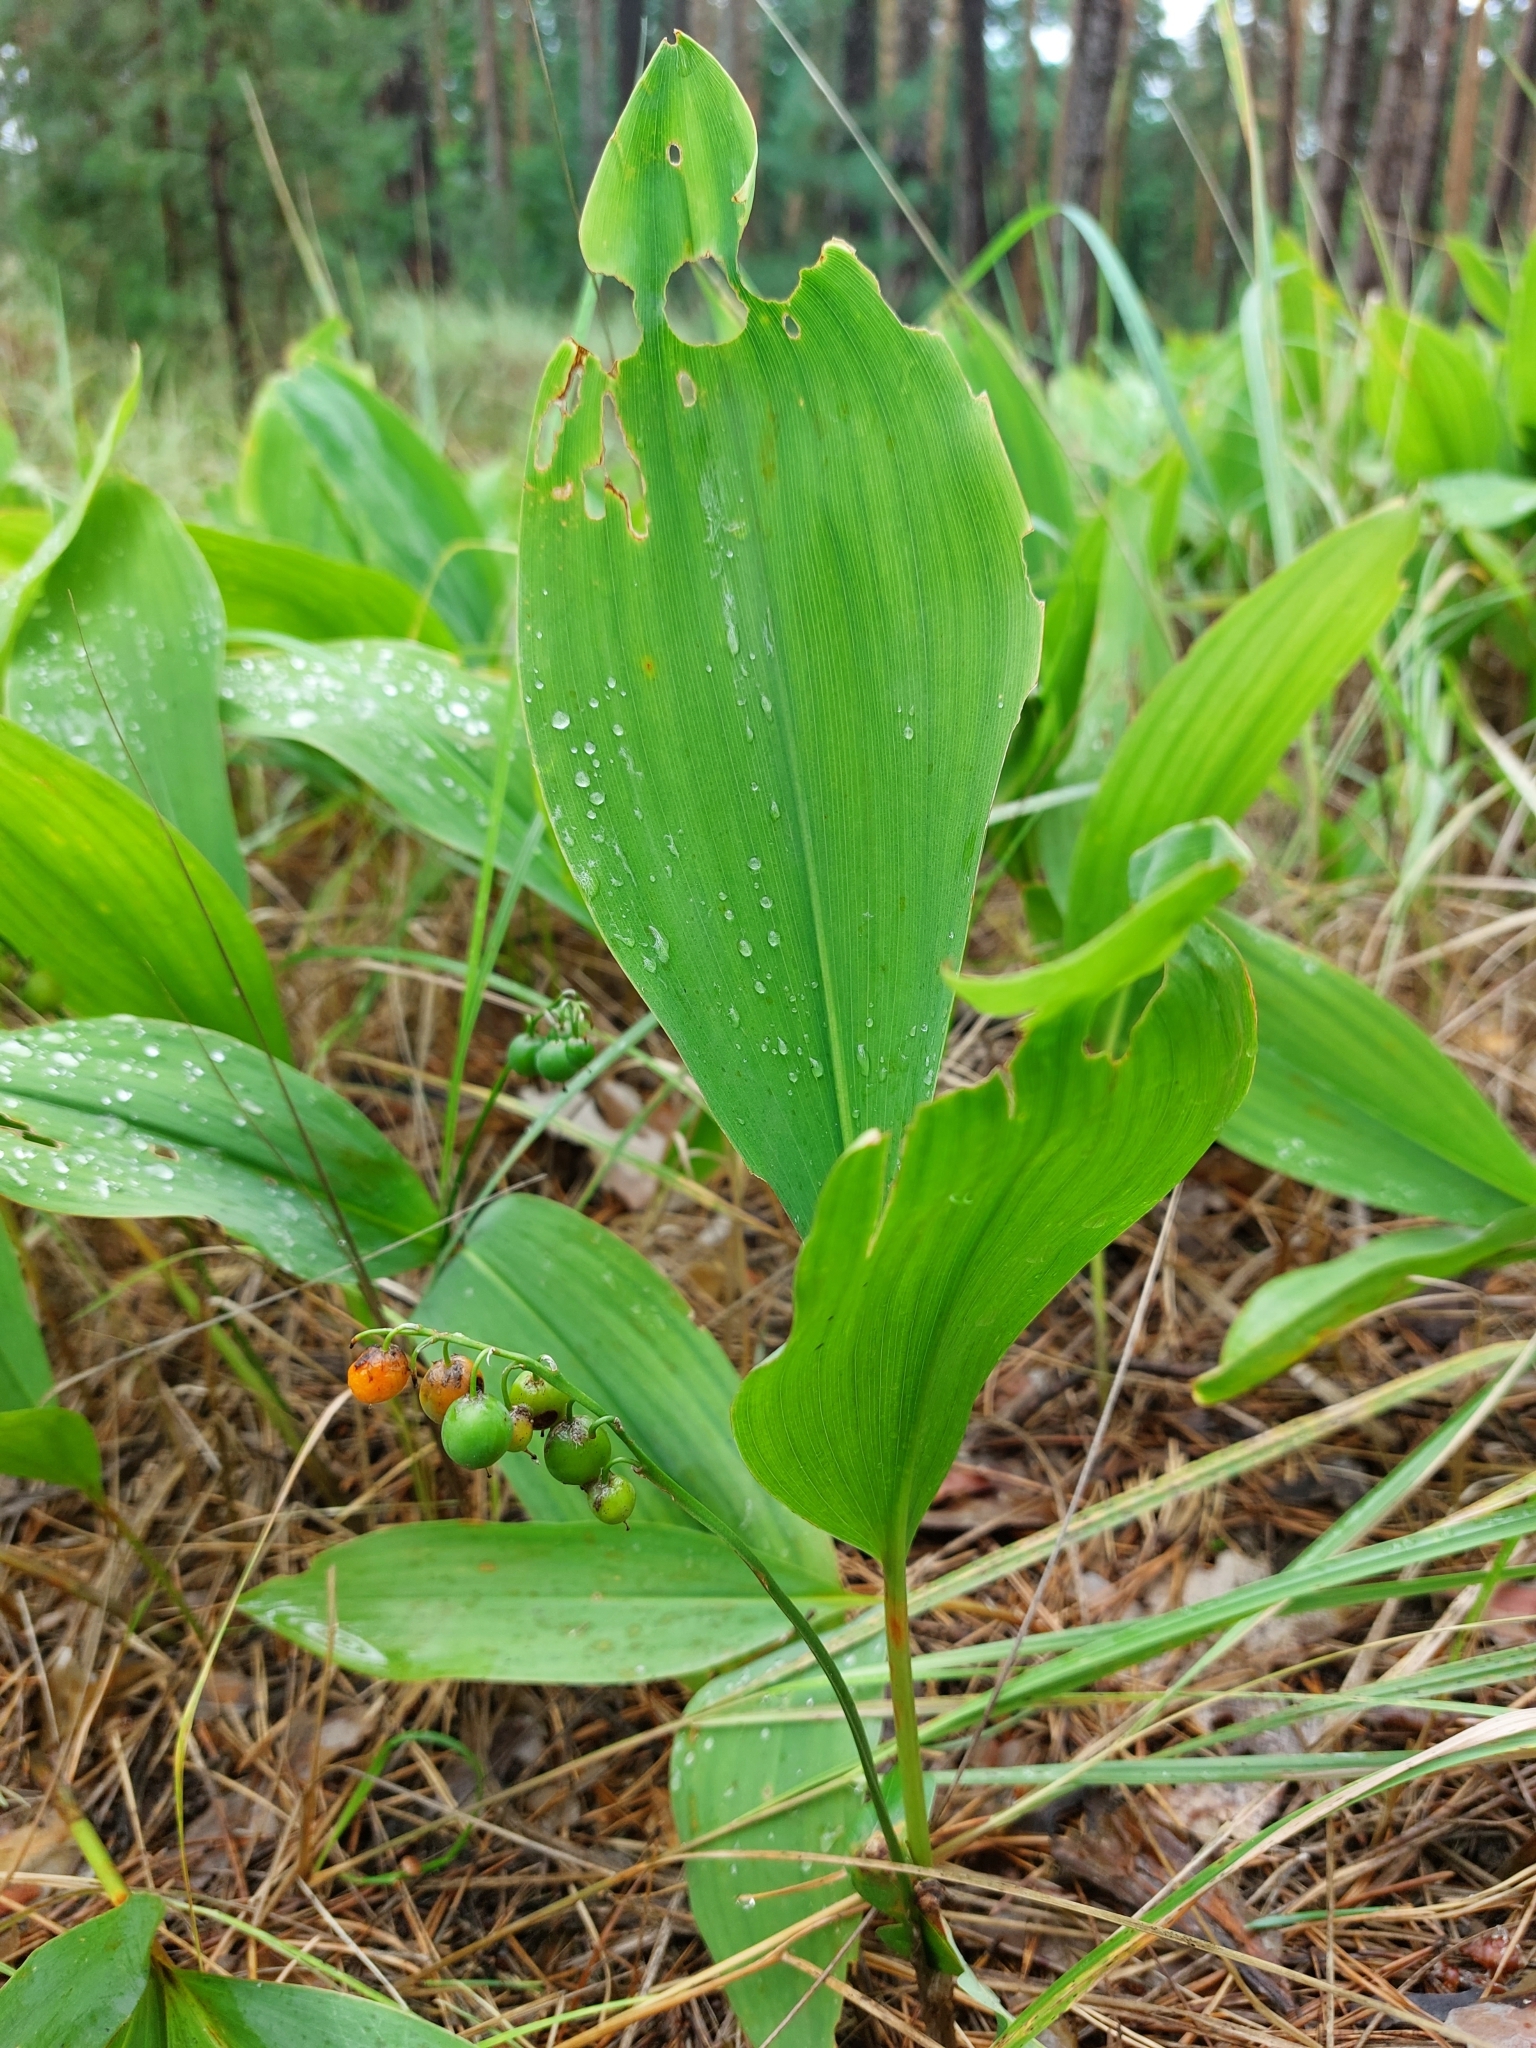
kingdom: Plantae
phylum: Tracheophyta
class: Liliopsida
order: Asparagales
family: Asparagaceae
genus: Convallaria
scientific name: Convallaria majalis
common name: Lily-of-the-valley
